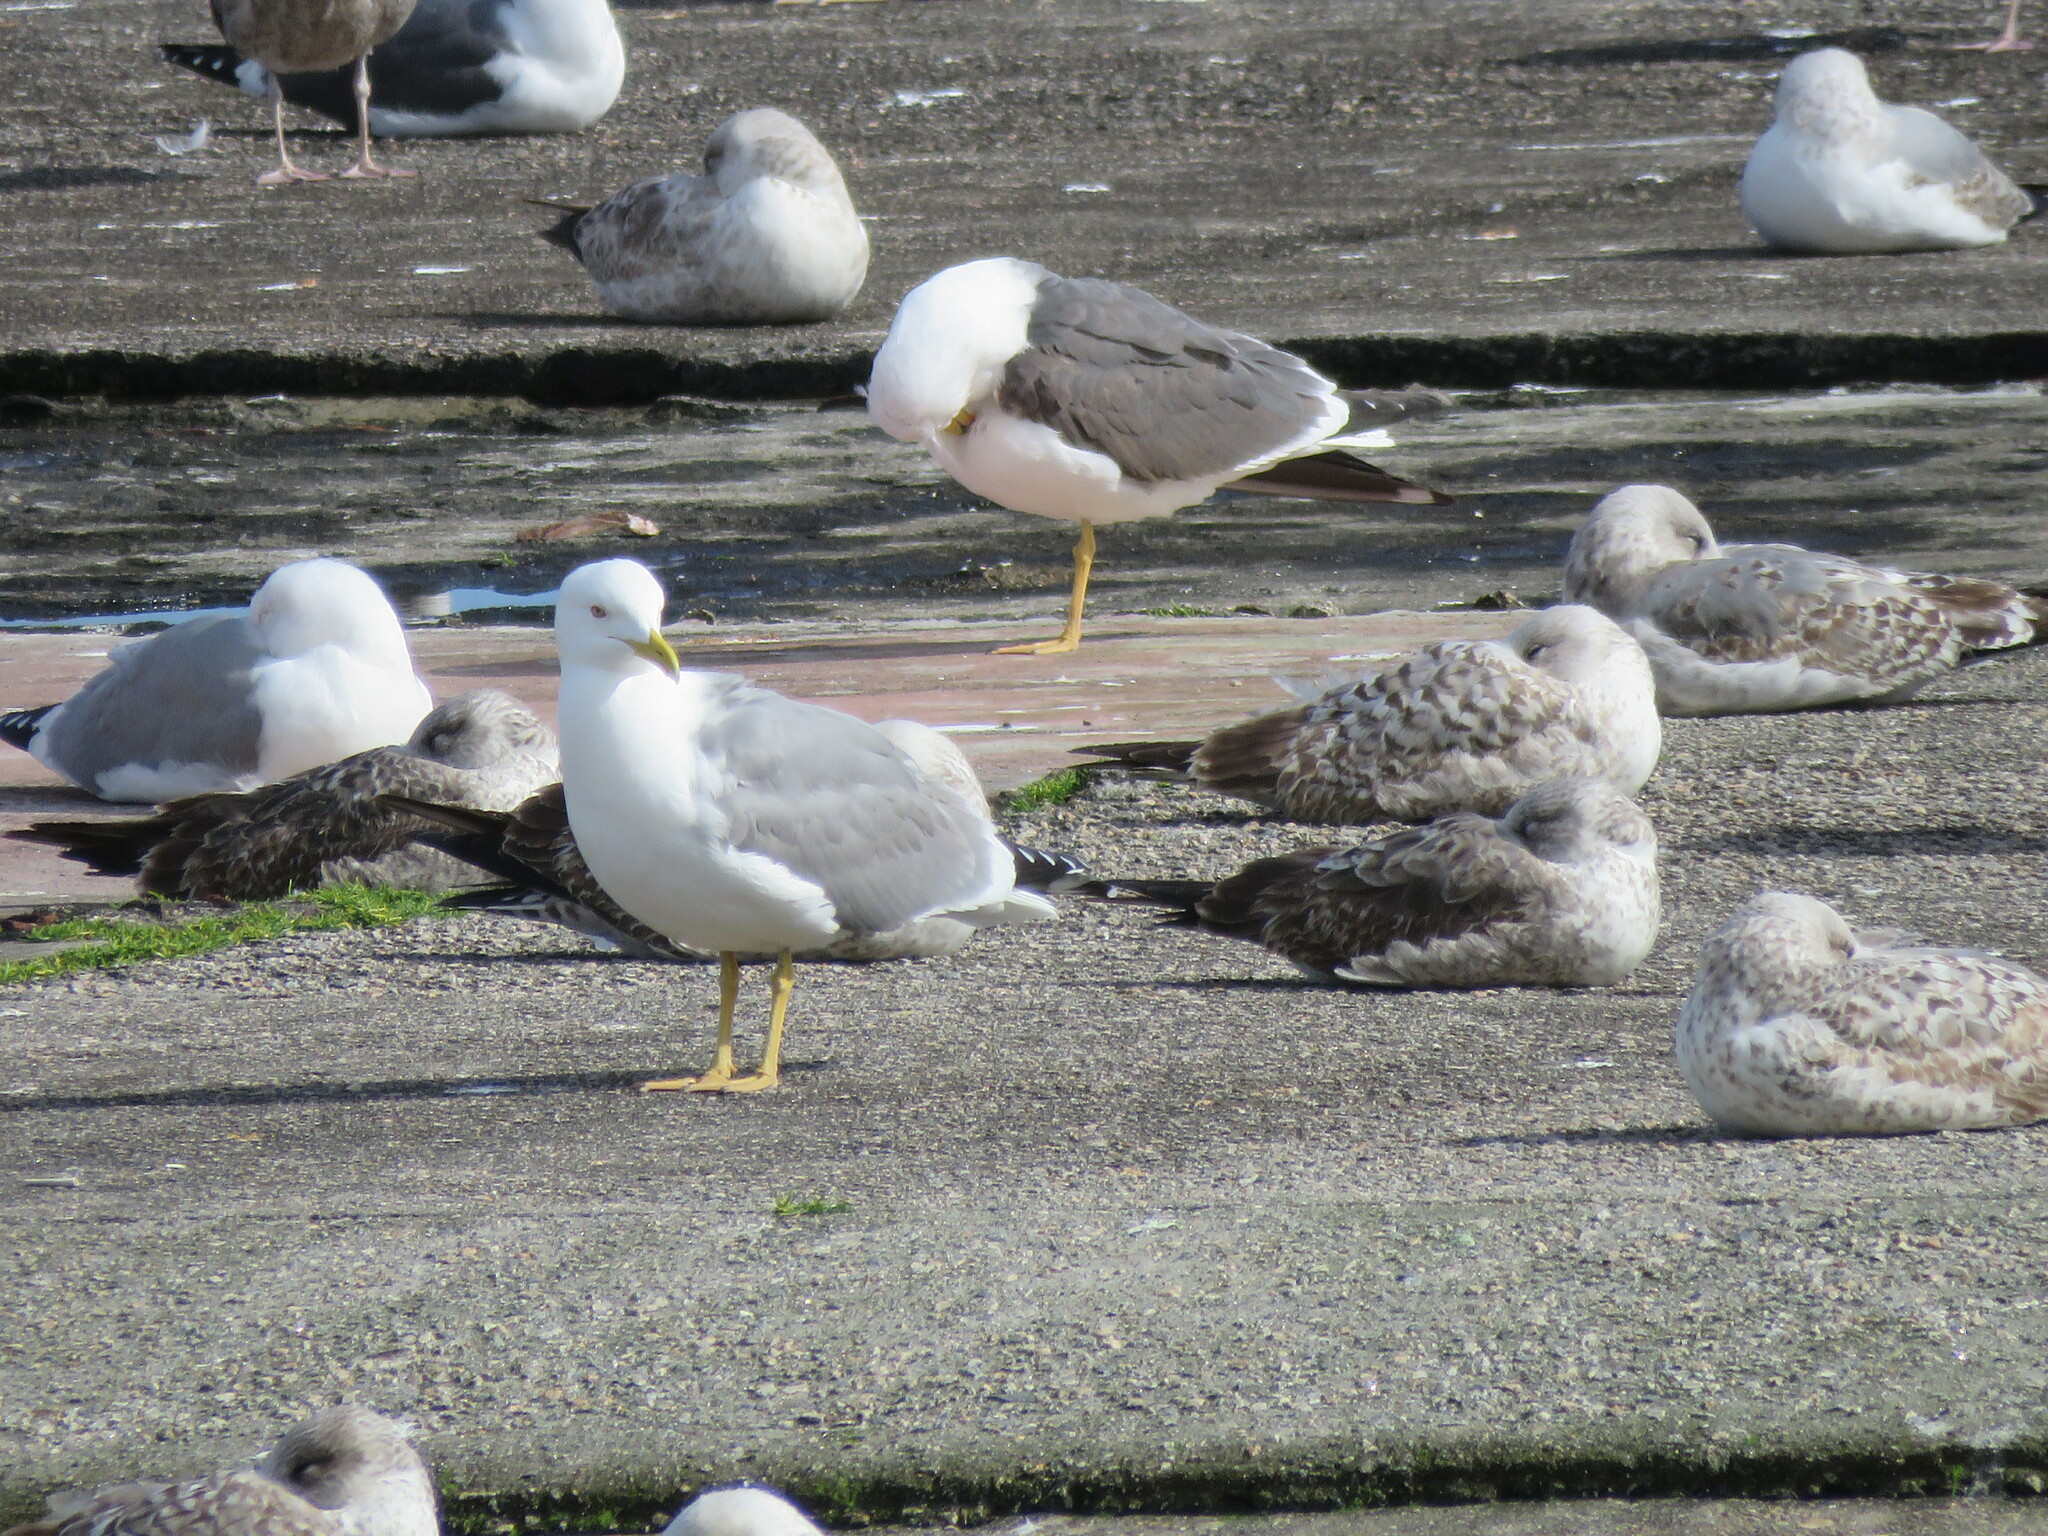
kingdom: Animalia
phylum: Chordata
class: Aves
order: Charadriiformes
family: Laridae
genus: Larus
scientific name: Larus michahellis
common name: Yellow-legged gull
